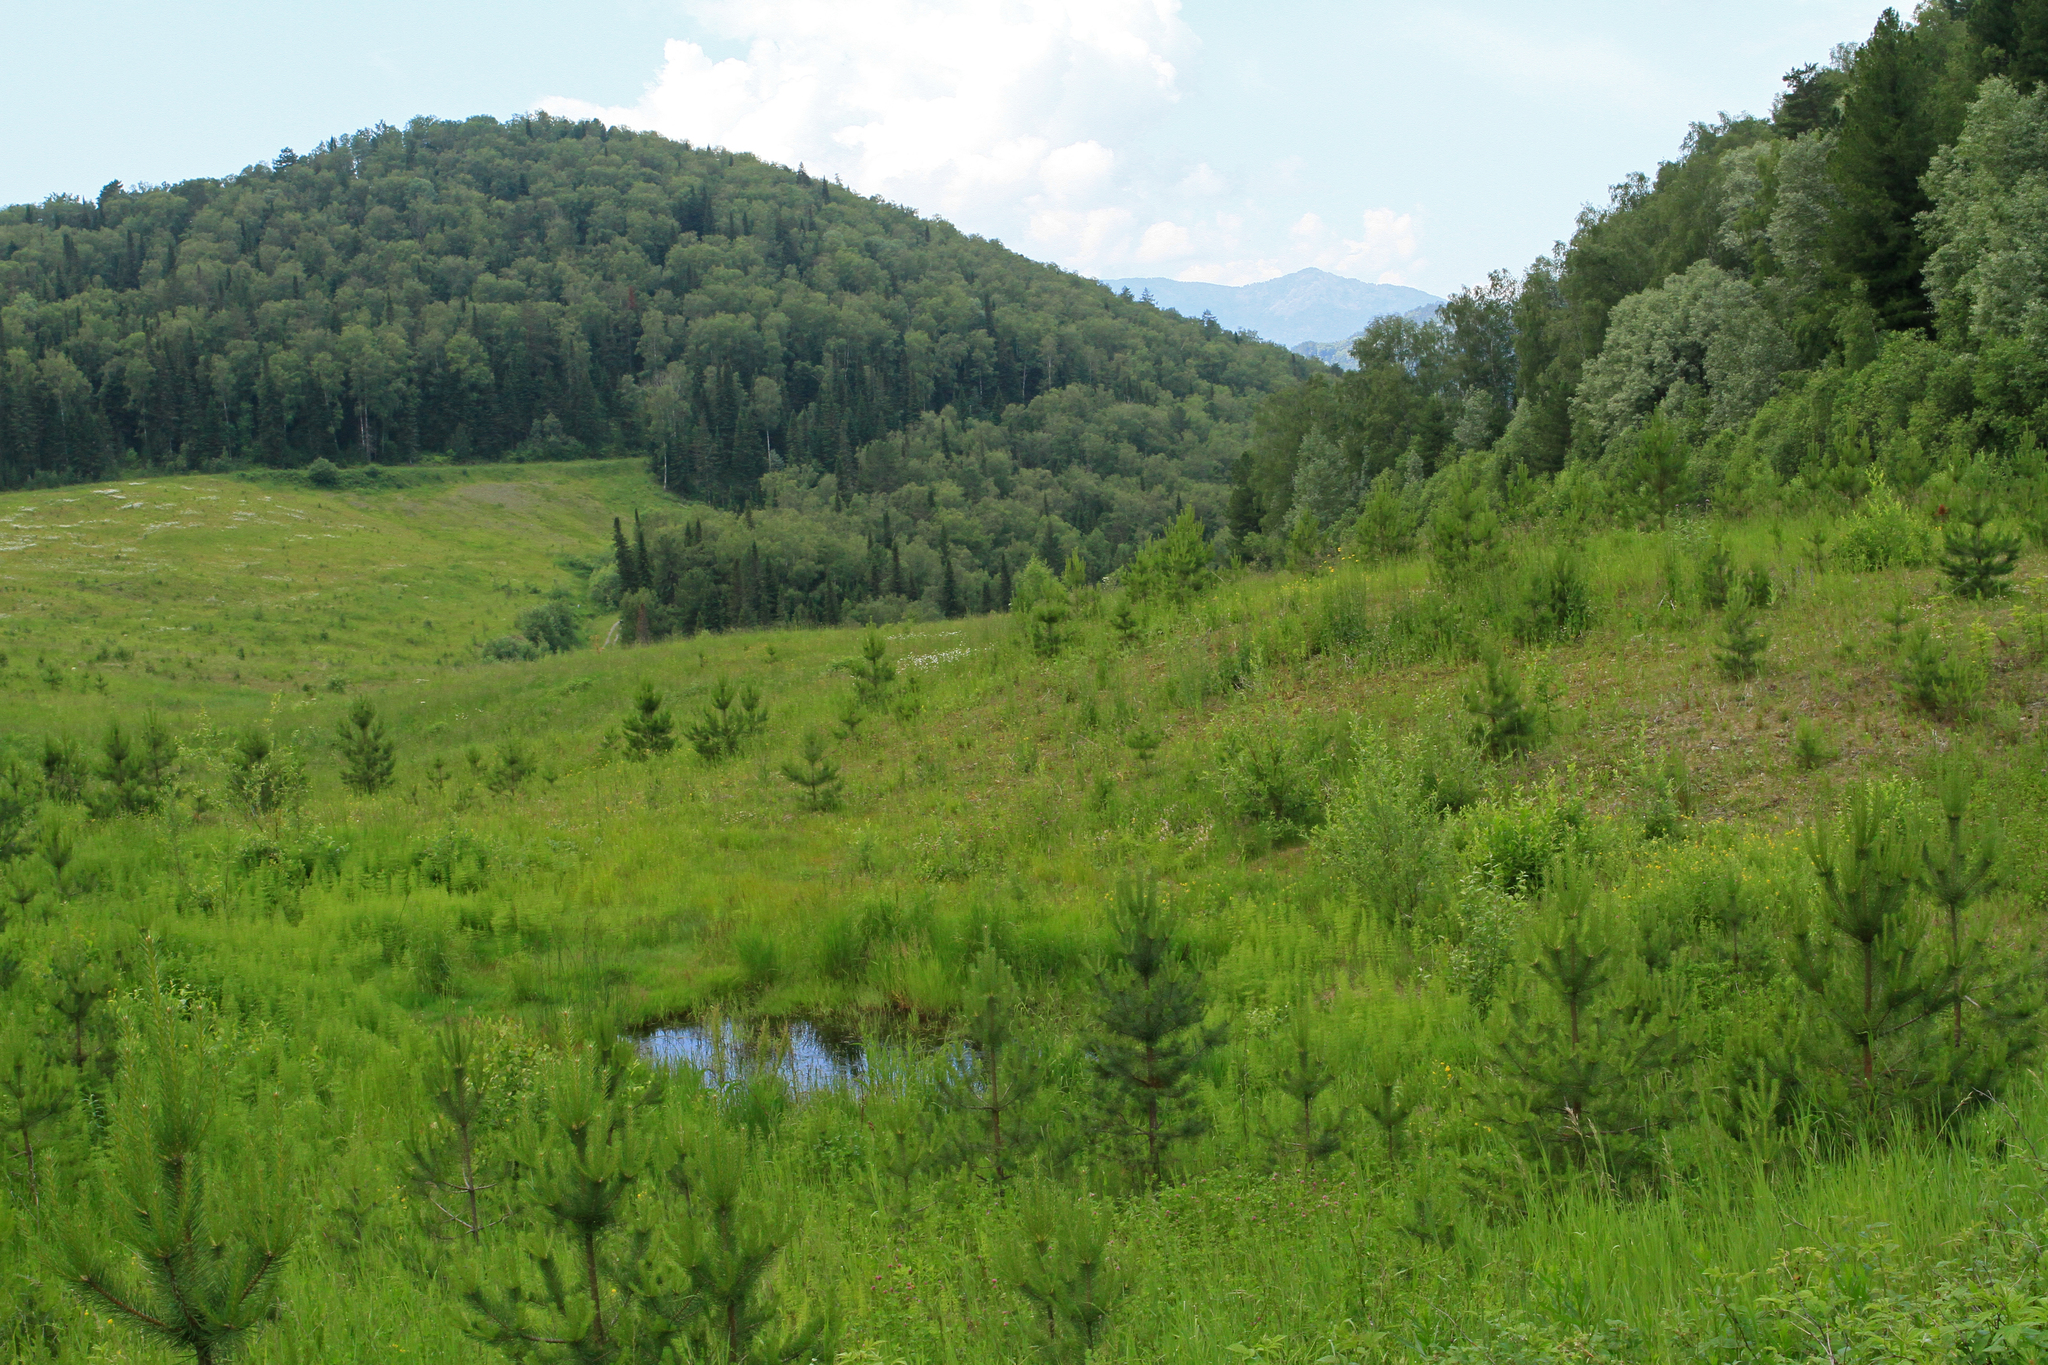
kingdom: Plantae
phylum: Tracheophyta
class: Pinopsida
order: Pinales
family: Pinaceae
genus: Pinus
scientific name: Pinus sylvestris
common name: Scots pine
